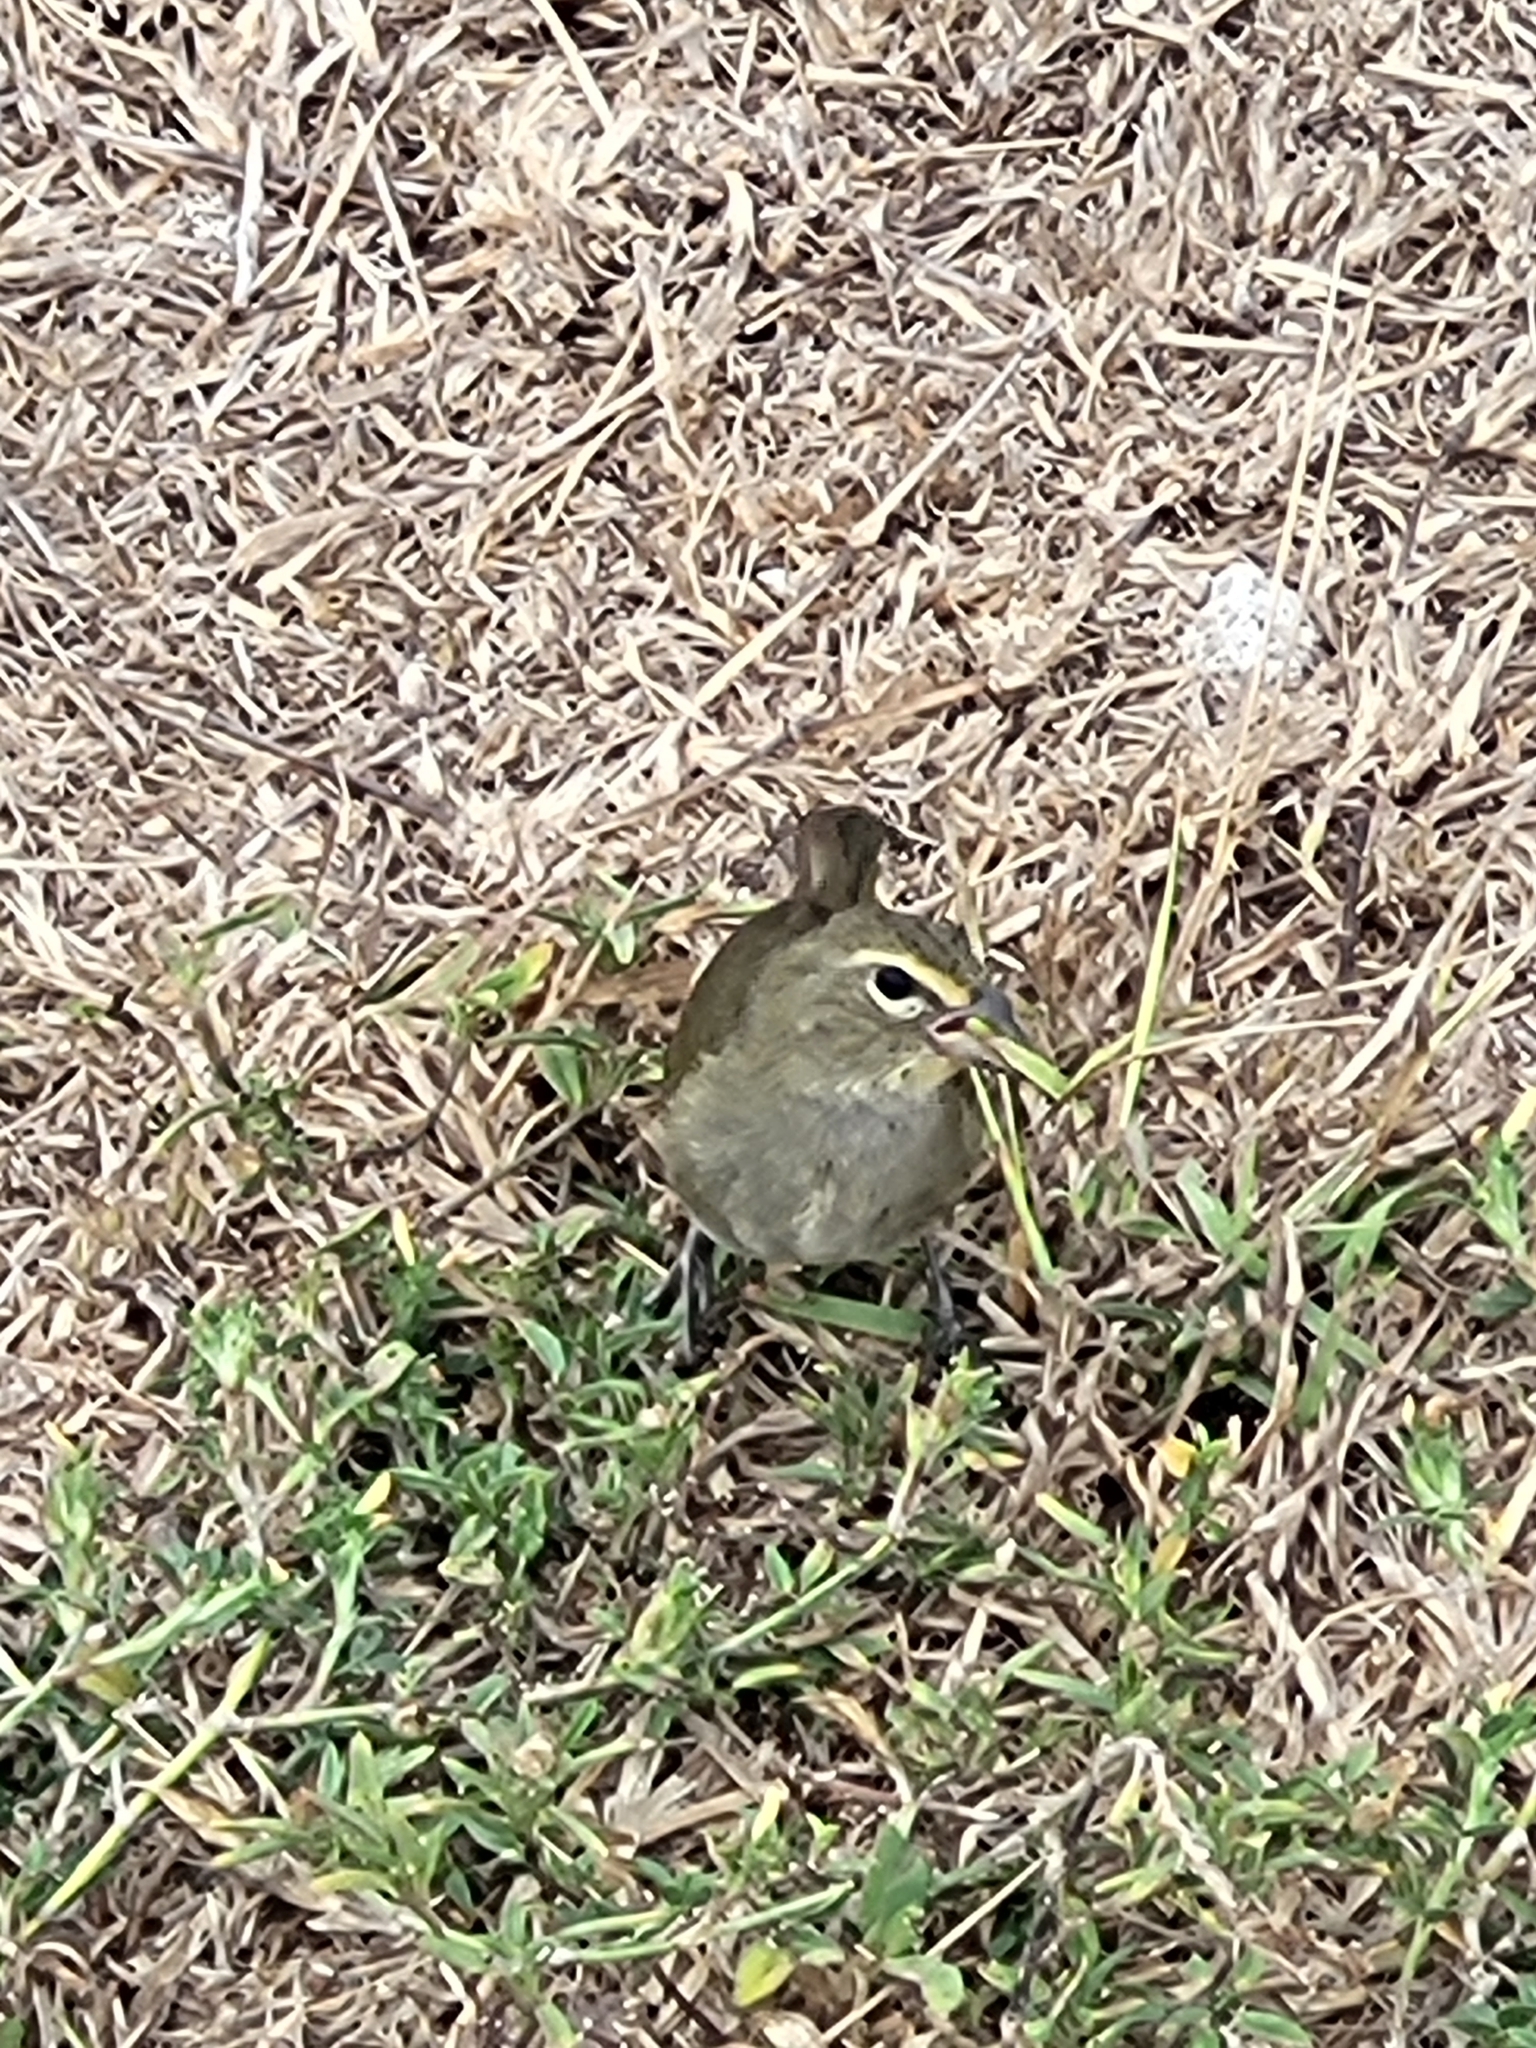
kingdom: Animalia
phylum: Chordata
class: Aves
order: Passeriformes
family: Thraupidae
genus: Tiaris
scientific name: Tiaris olivaceus
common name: Yellow-faced grassquit
